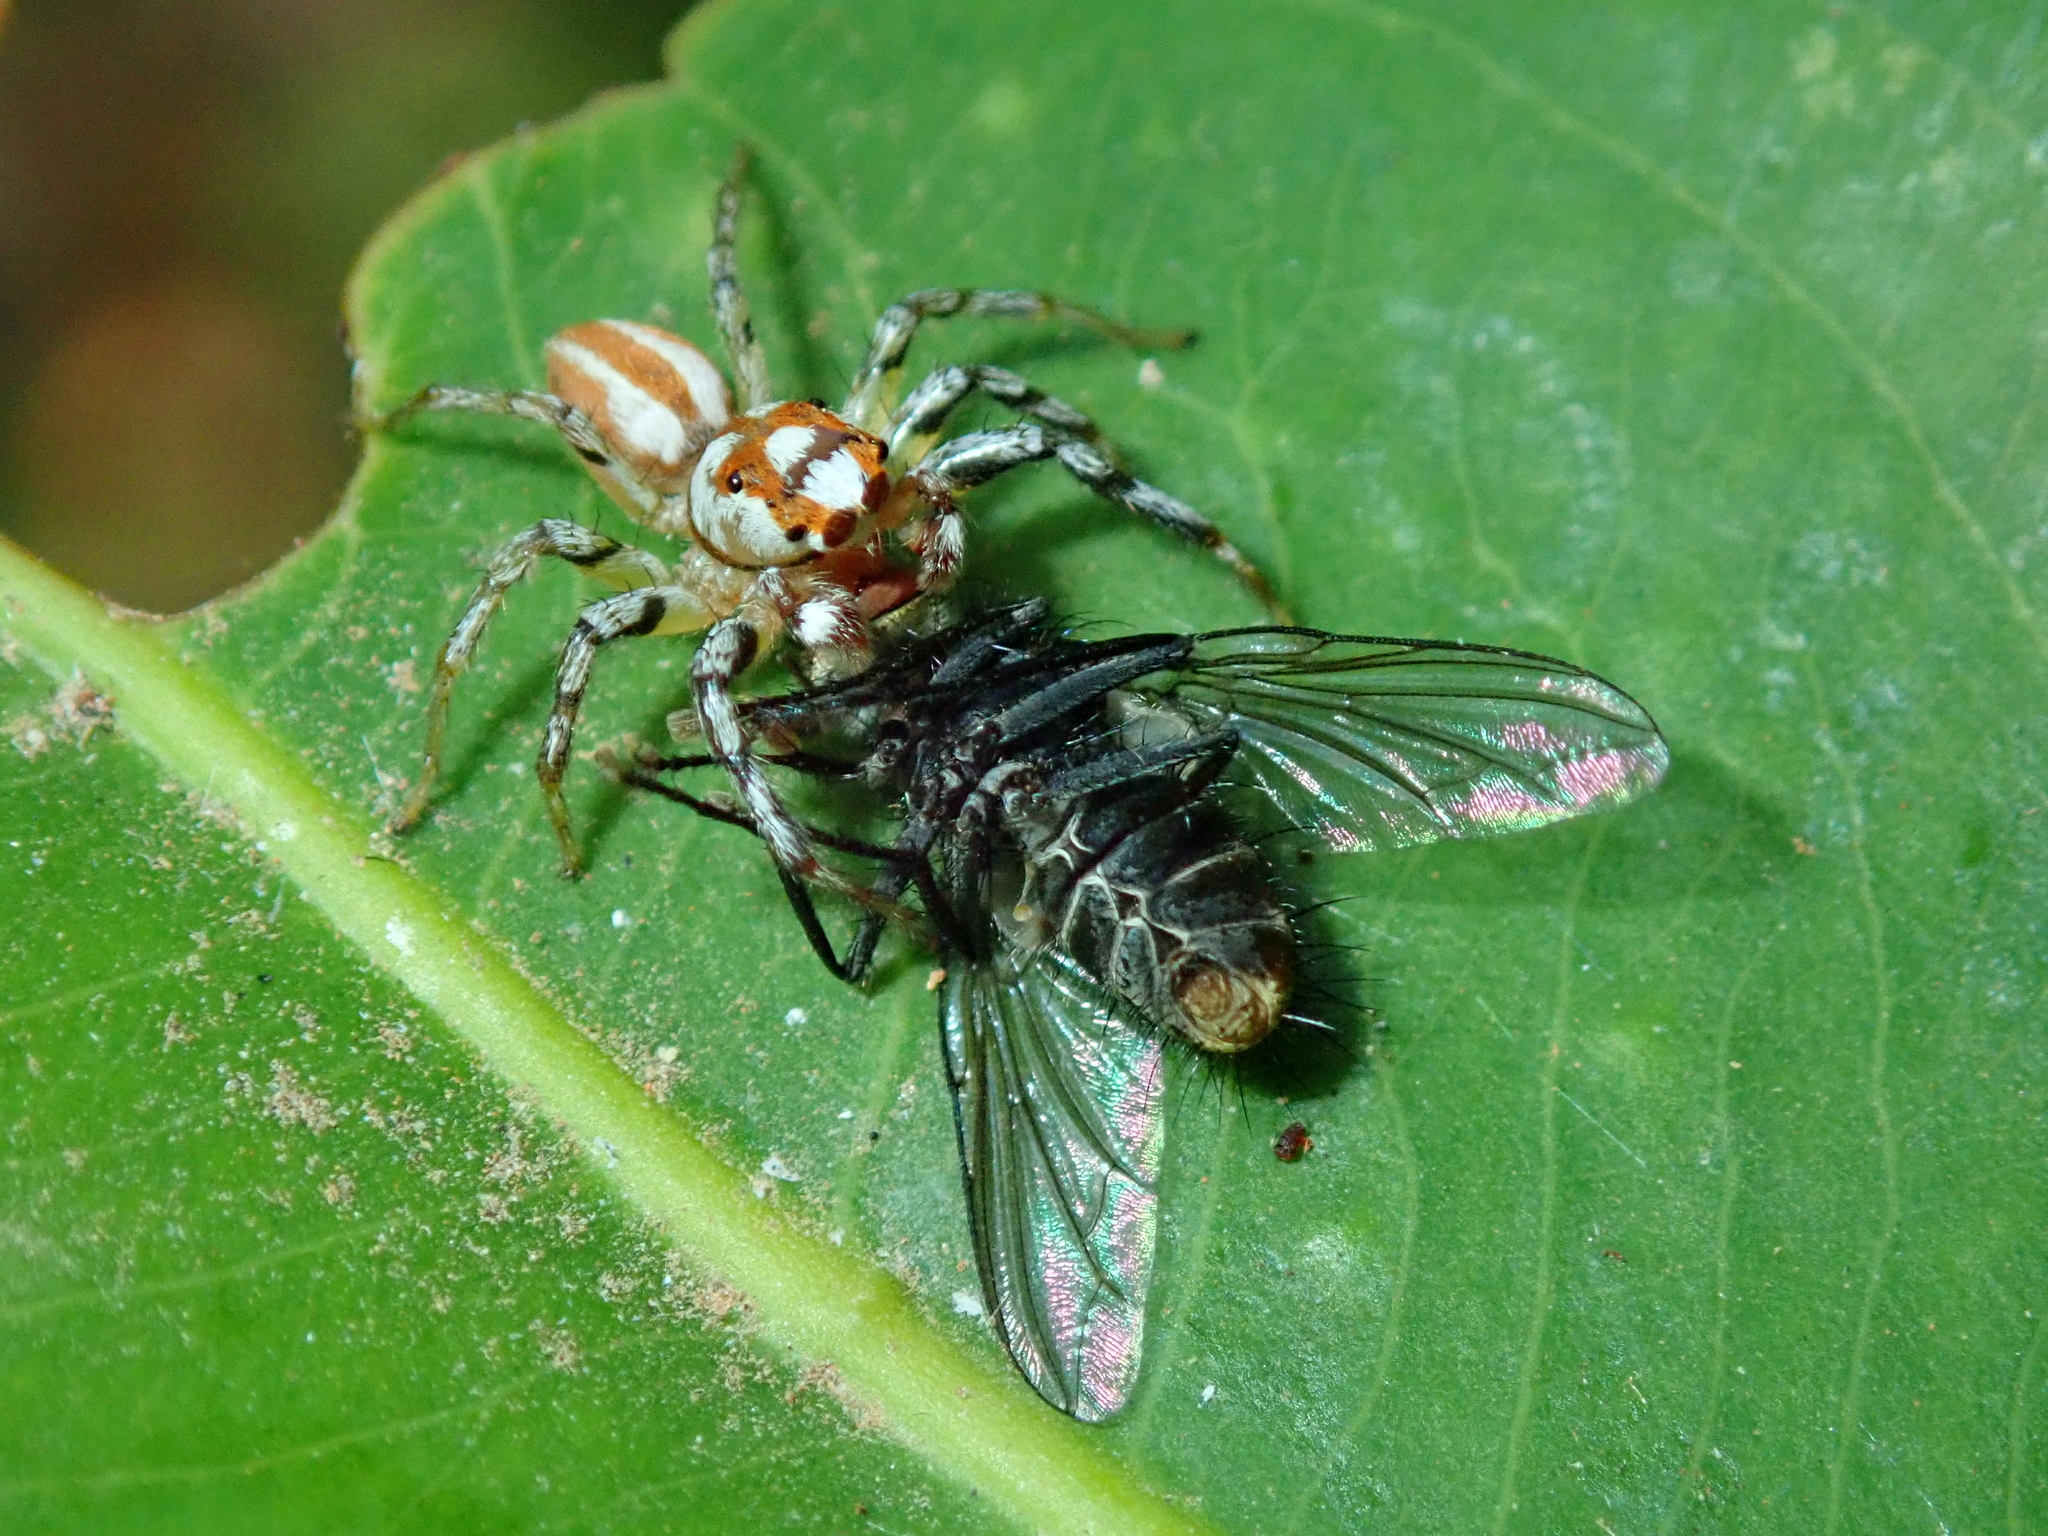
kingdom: Animalia
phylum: Arthropoda
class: Arachnida
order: Araneae
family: Salticidae
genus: Chira
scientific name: Chira
